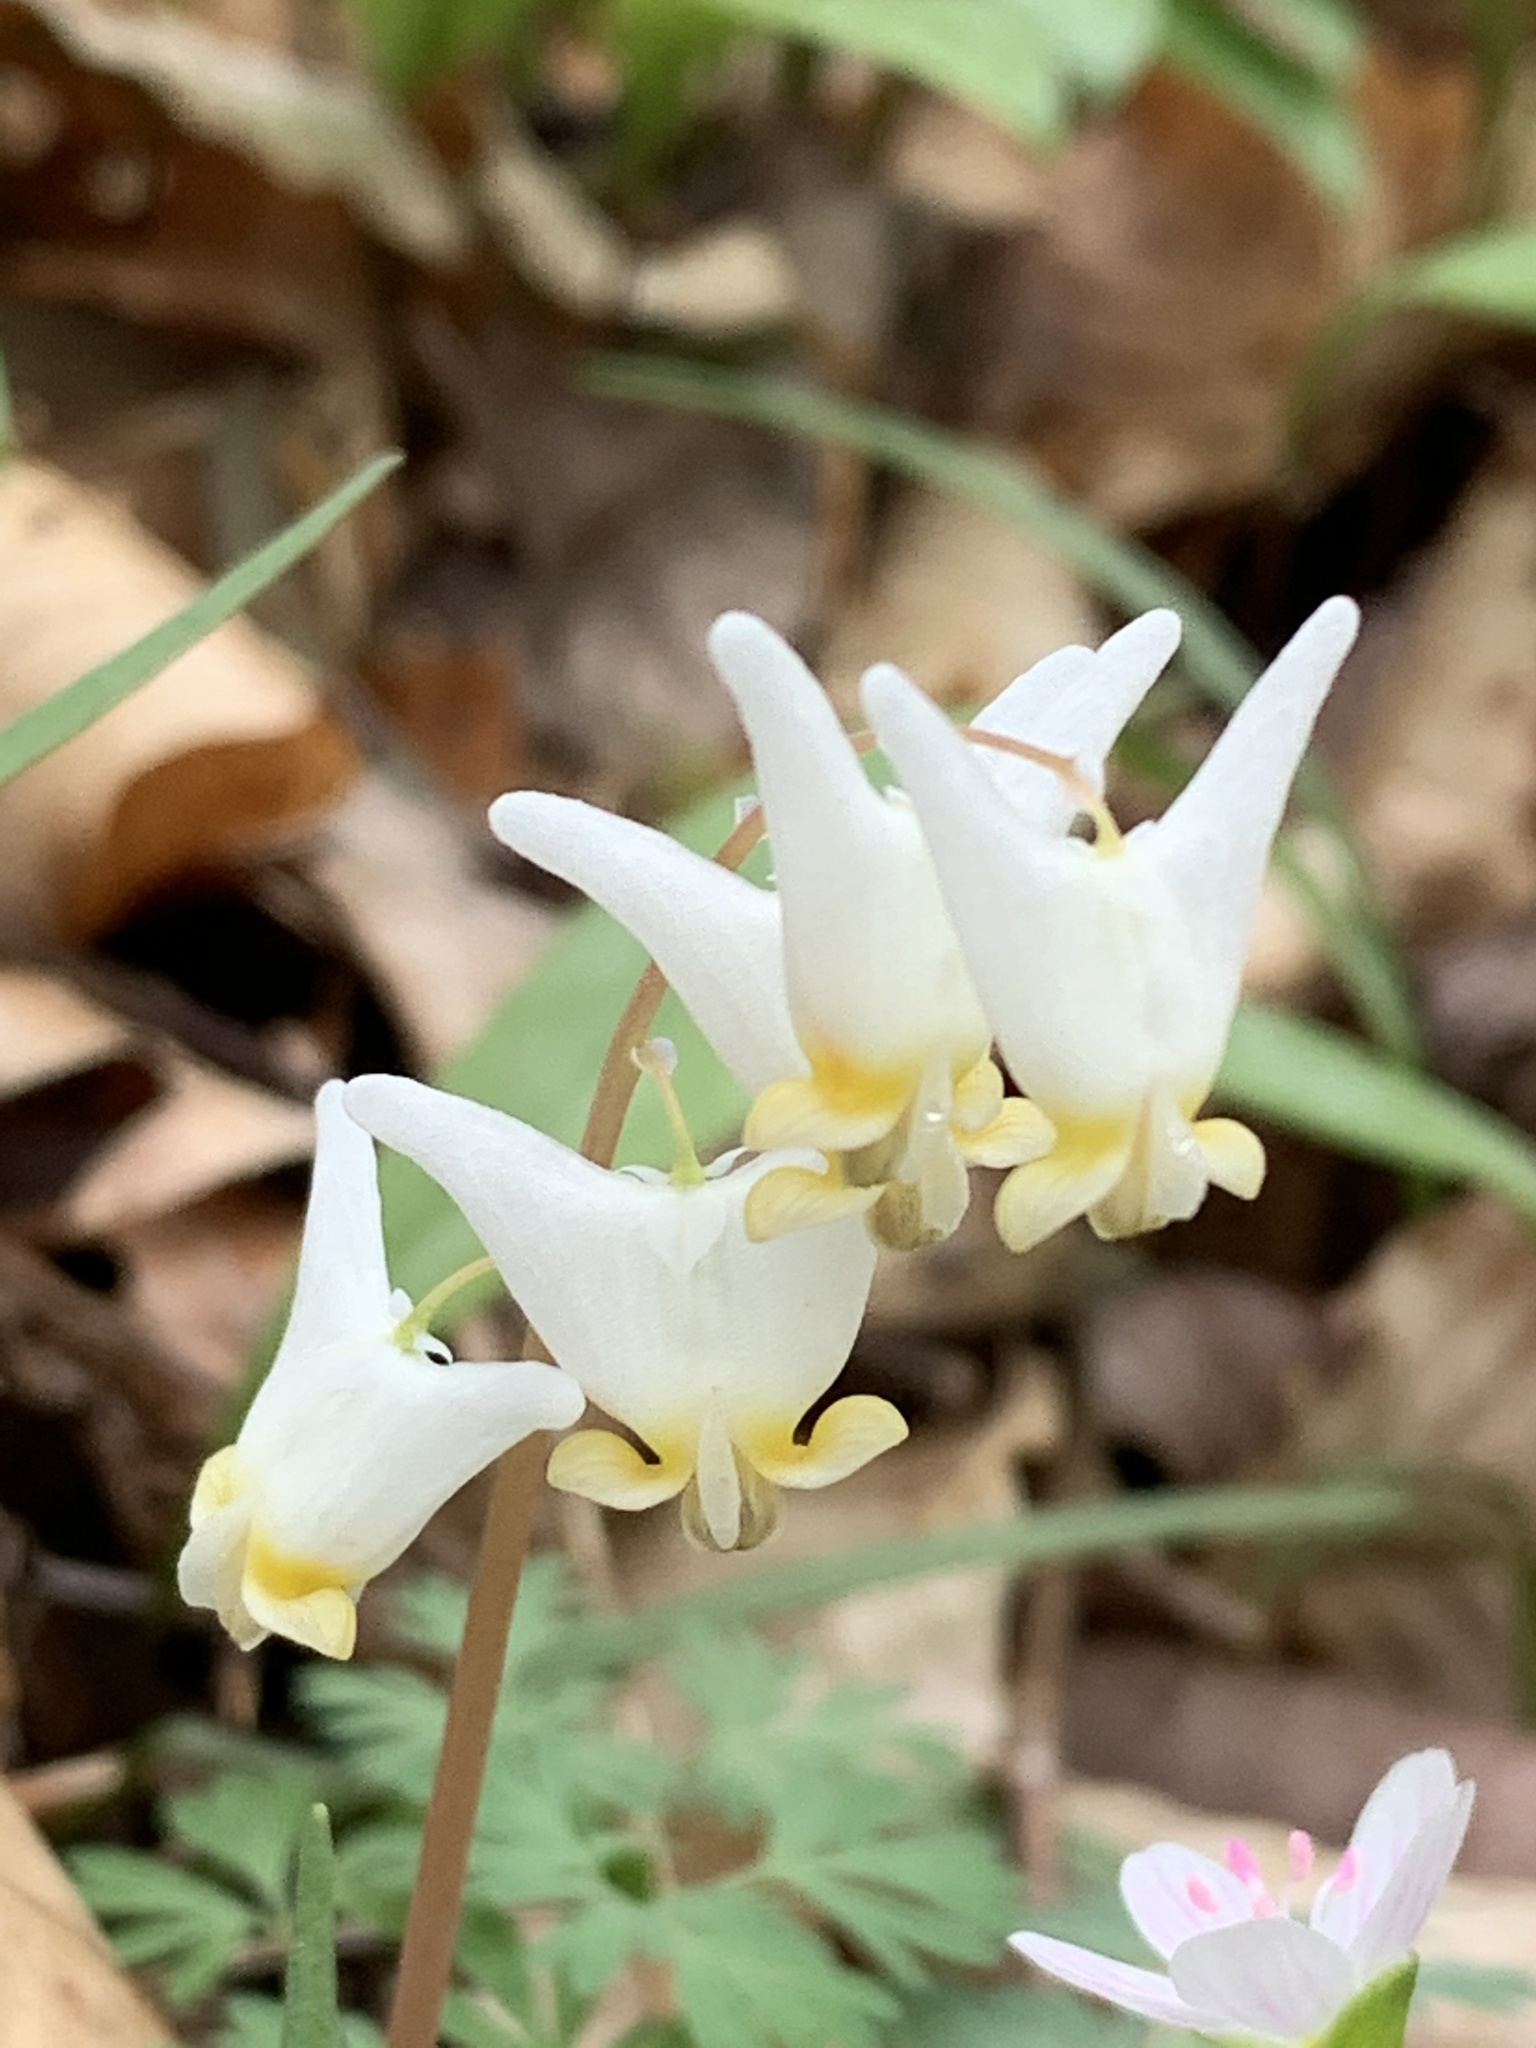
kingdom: Plantae
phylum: Tracheophyta
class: Magnoliopsida
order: Ranunculales
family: Papaveraceae
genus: Dicentra
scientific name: Dicentra cucullaria
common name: Dutchman's breeches
